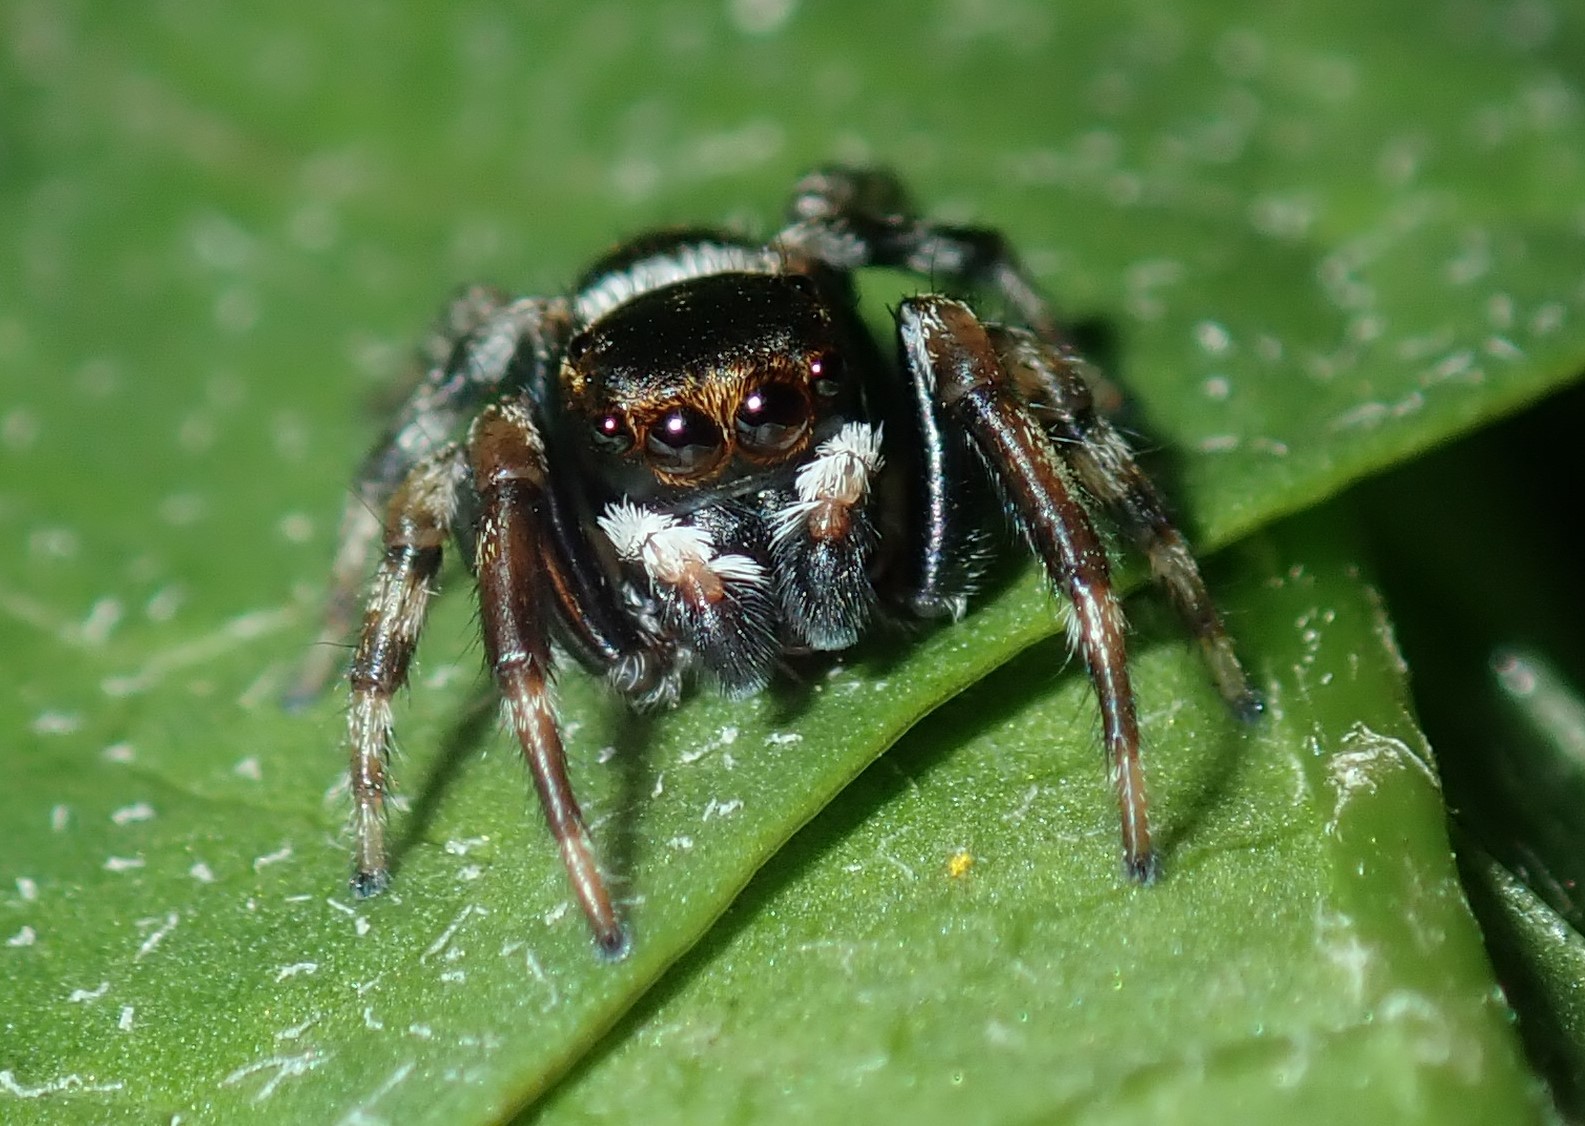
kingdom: Animalia
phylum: Arthropoda
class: Arachnida
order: Araneae
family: Salticidae
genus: Maratus
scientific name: Maratus scutulatus
